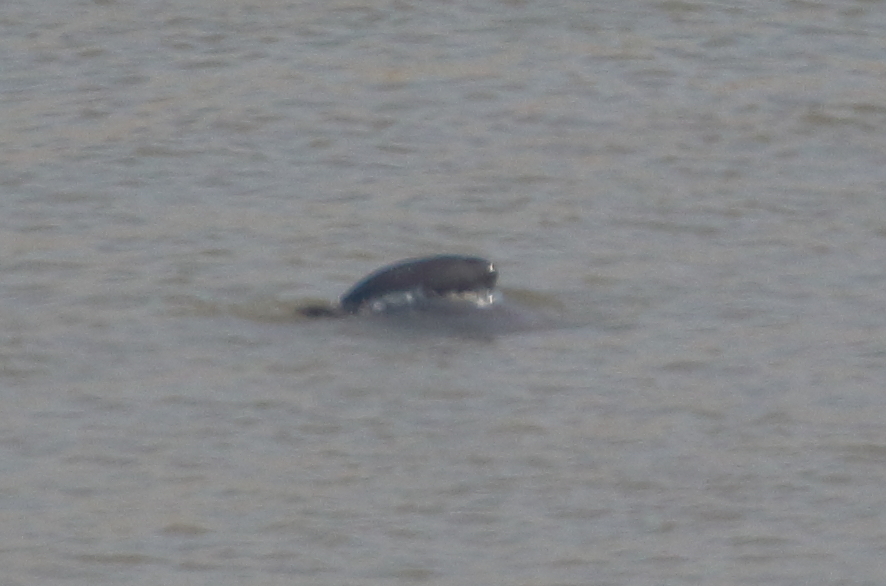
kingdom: Animalia
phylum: Chordata
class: Mammalia
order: Cetacea
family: Phocoenidae
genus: Neophocaena
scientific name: Neophocaena asiaeorientalis
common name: Narrow-ridged finless porpoise
